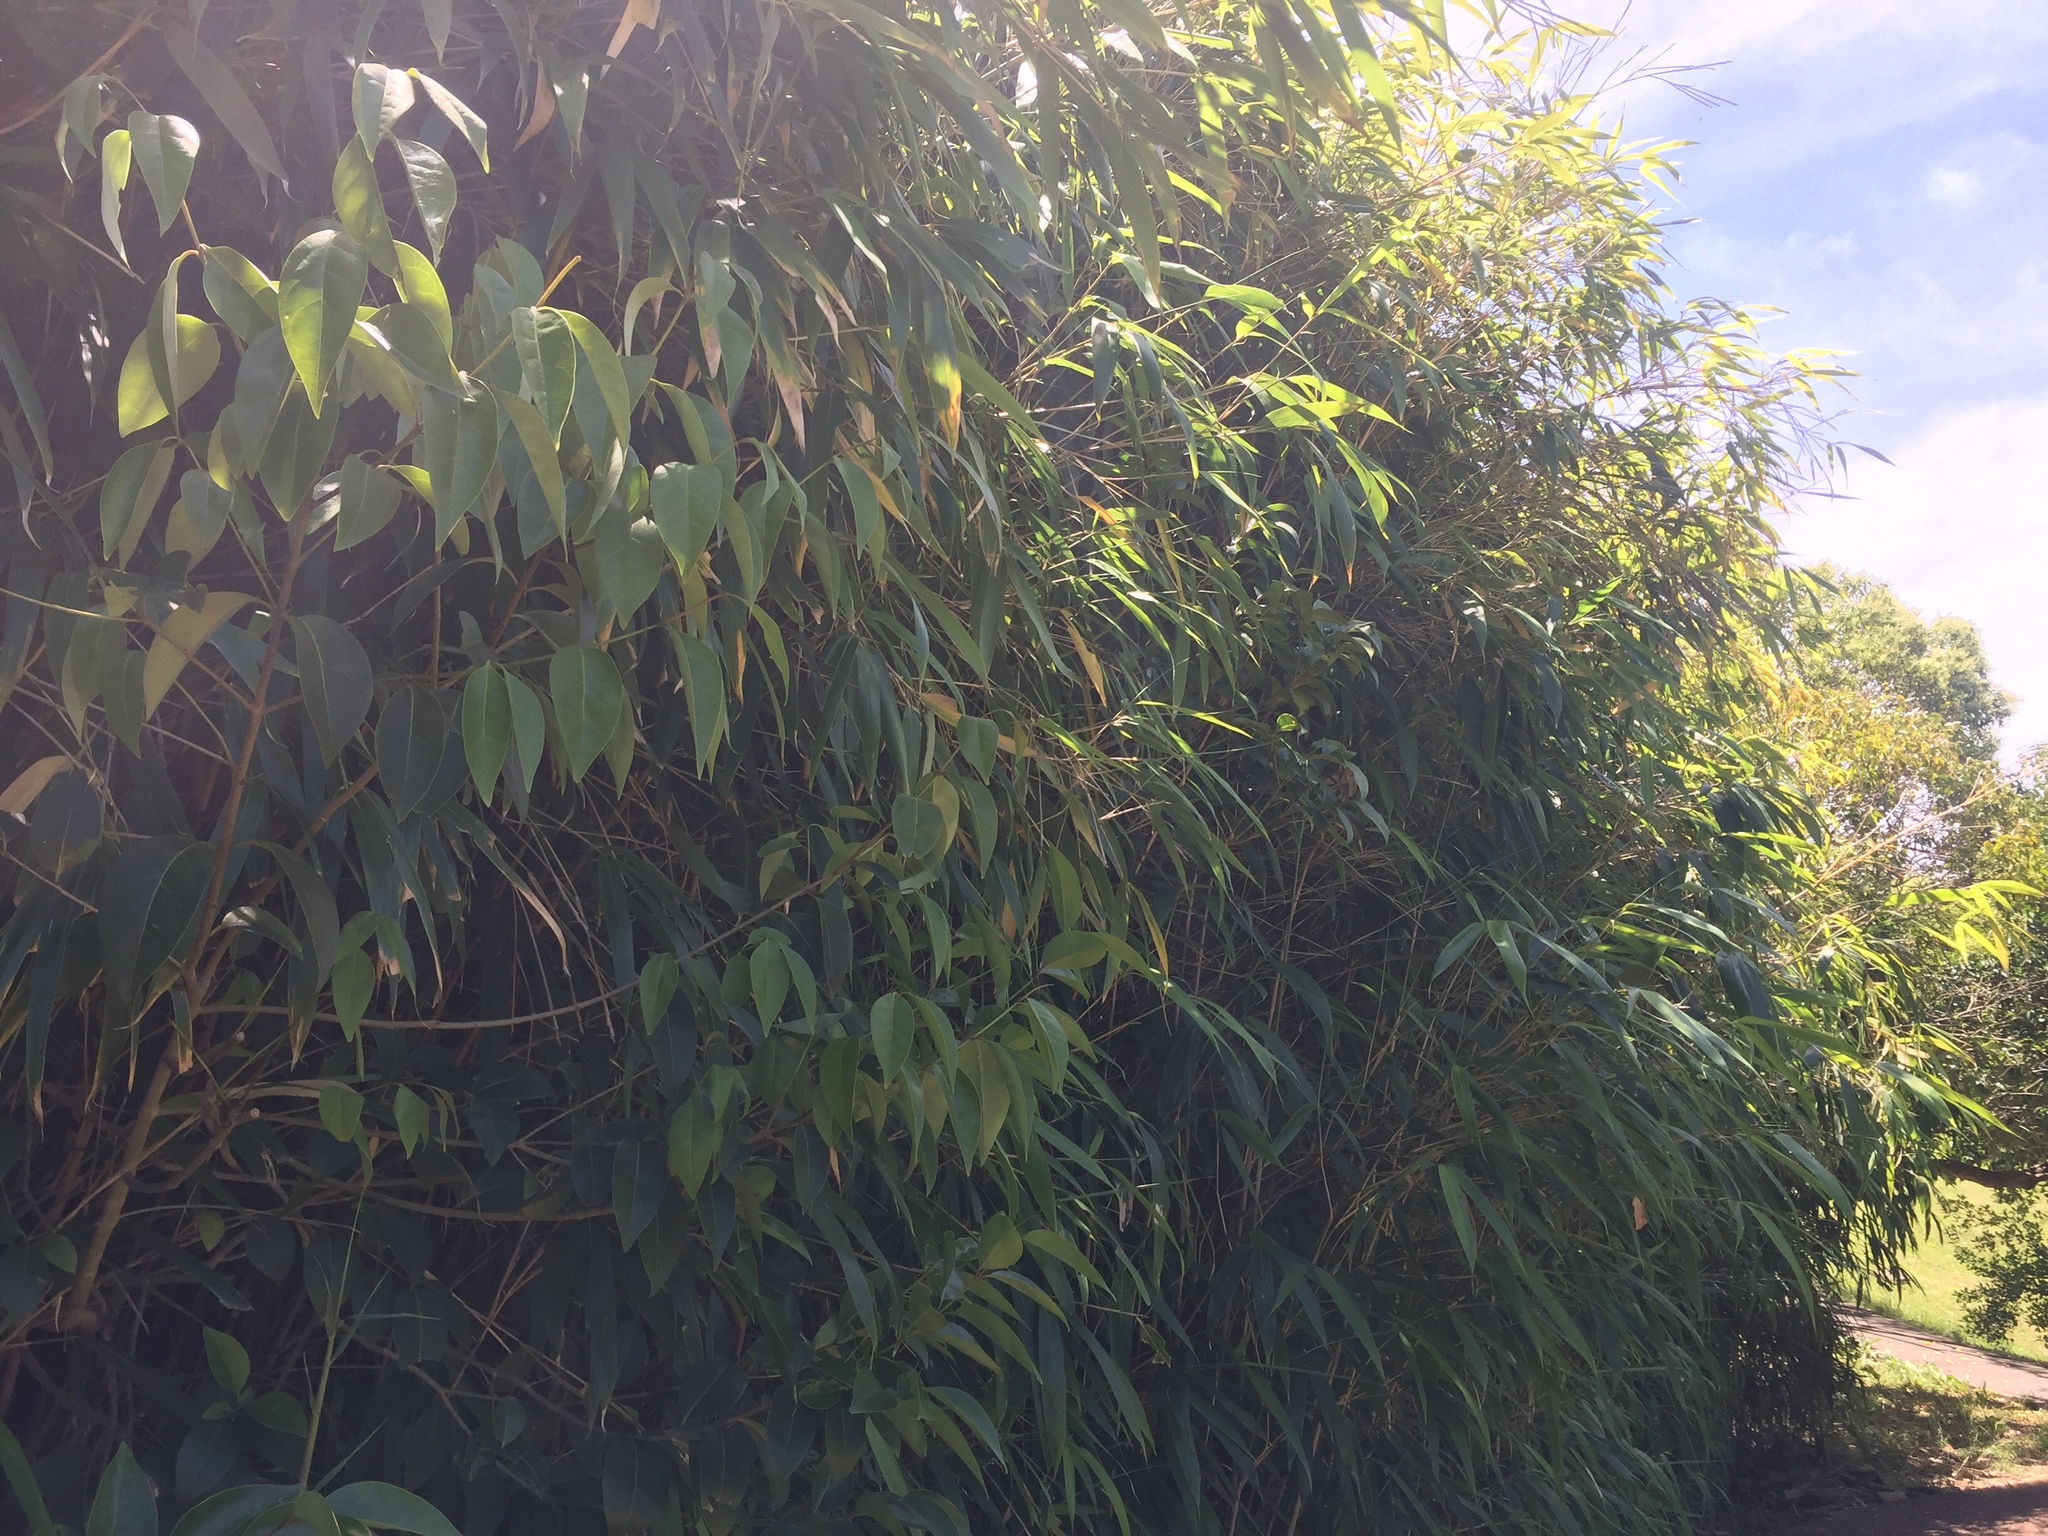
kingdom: Plantae
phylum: Tracheophyta
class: Liliopsida
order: Poales
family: Poaceae
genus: Pseudosasa
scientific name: Pseudosasa japonica
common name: Arrow bamboo
